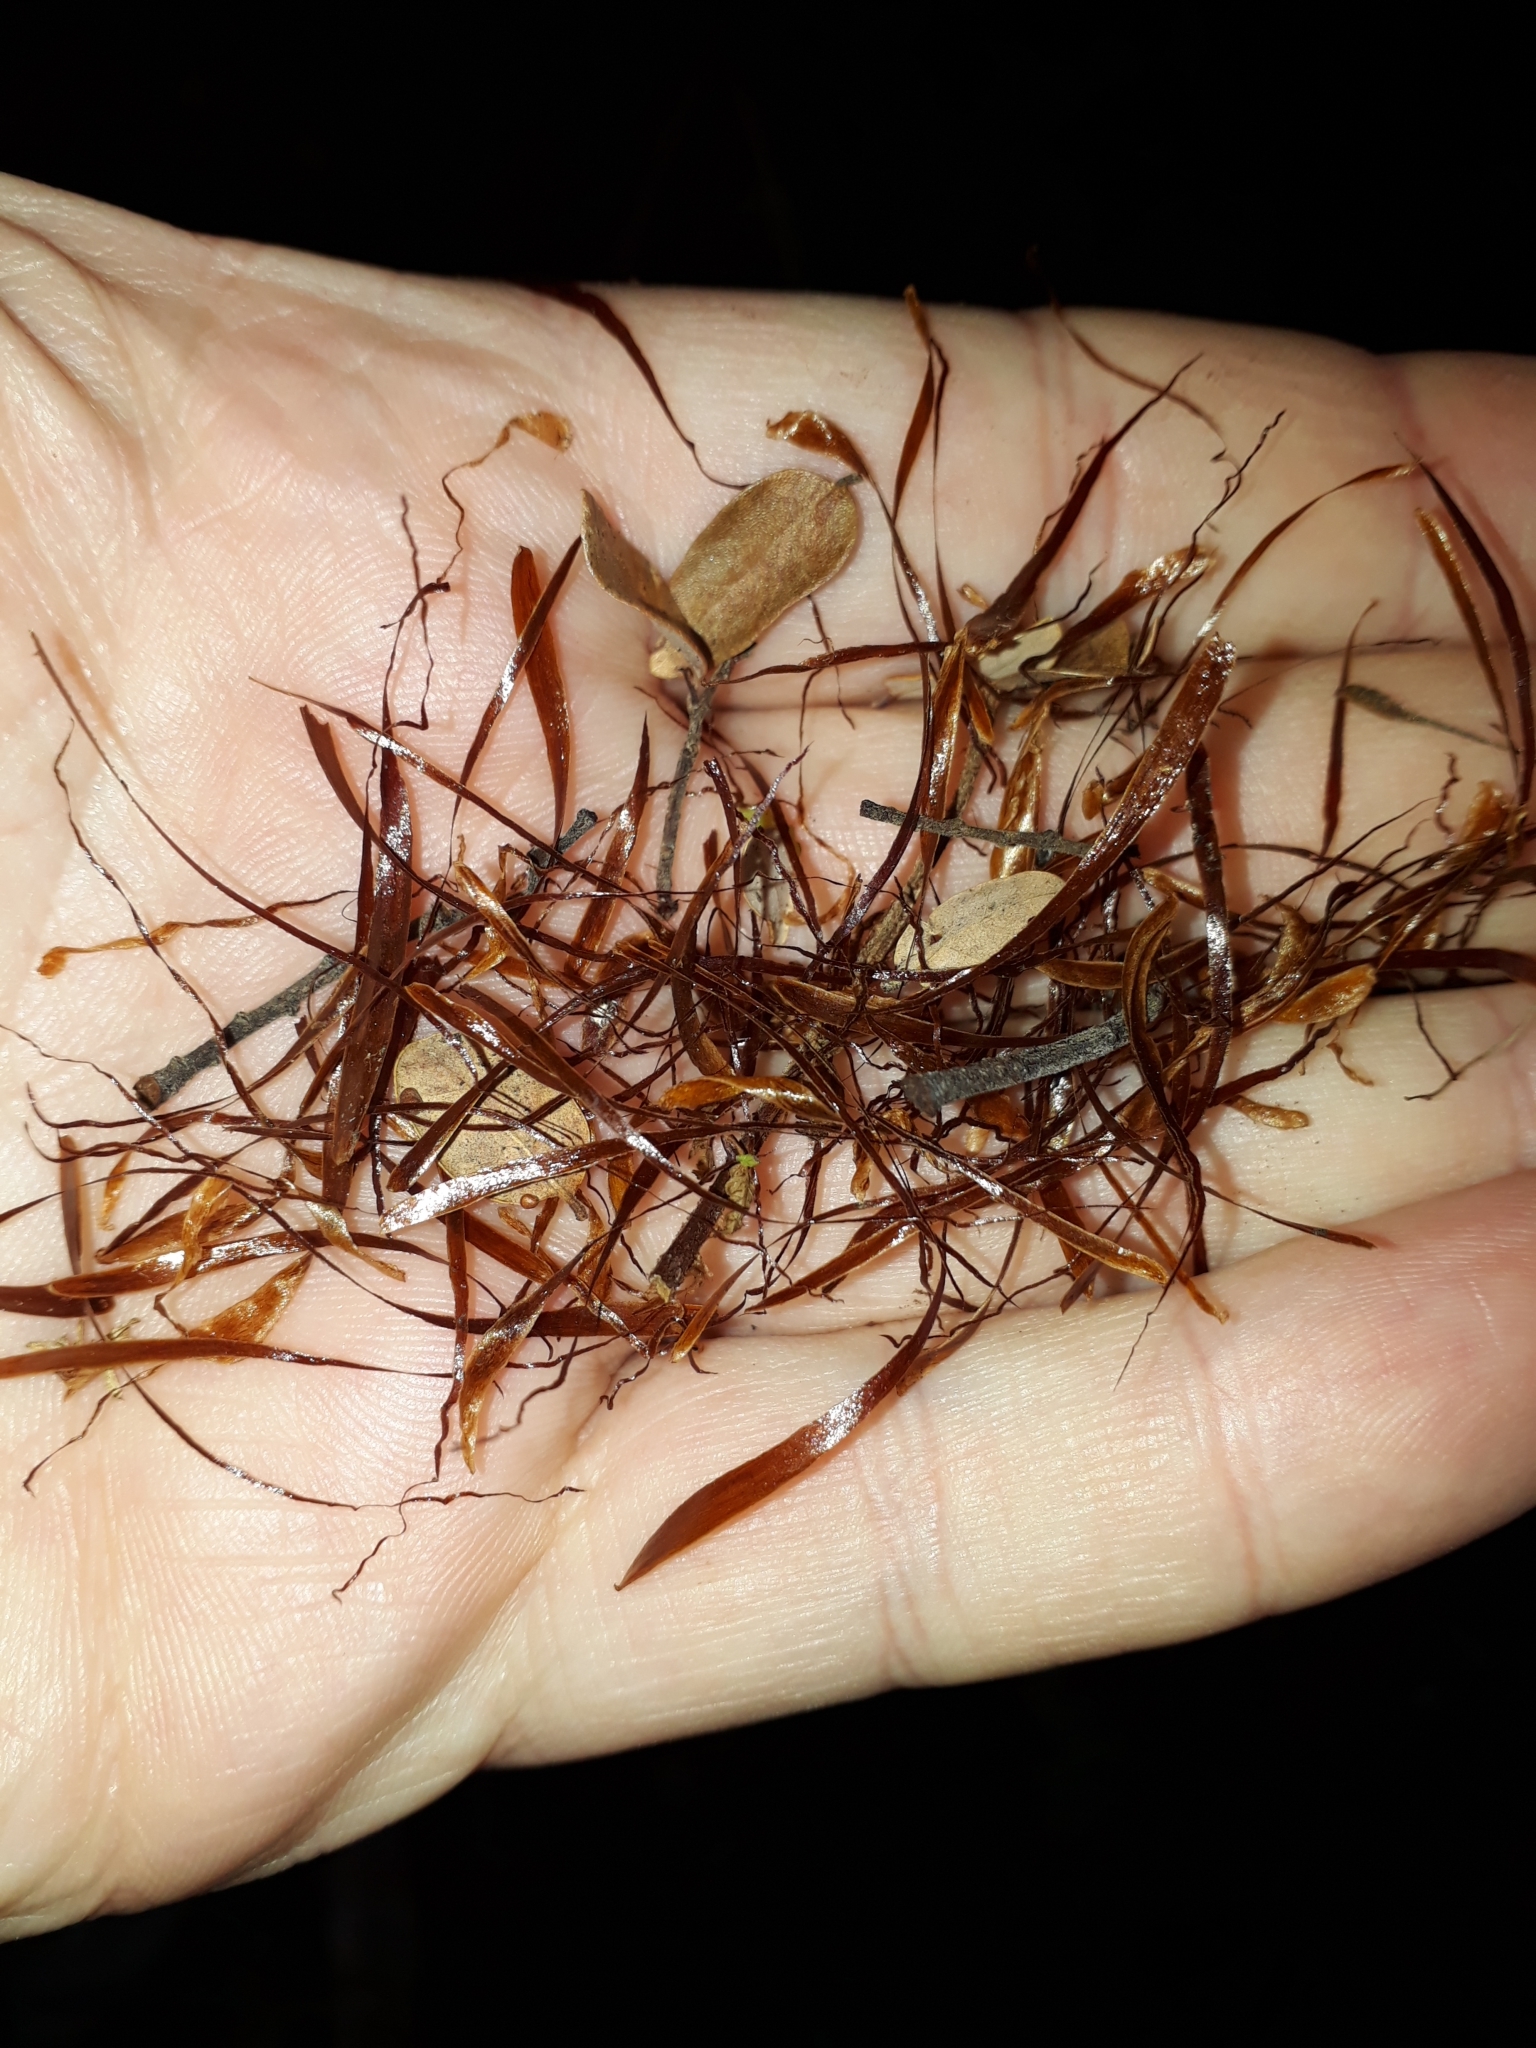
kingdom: Plantae
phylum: Tracheophyta
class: Polypodiopsida
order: Cyatheales
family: Cyatheaceae
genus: Alsophila
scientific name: Alsophila smithii
